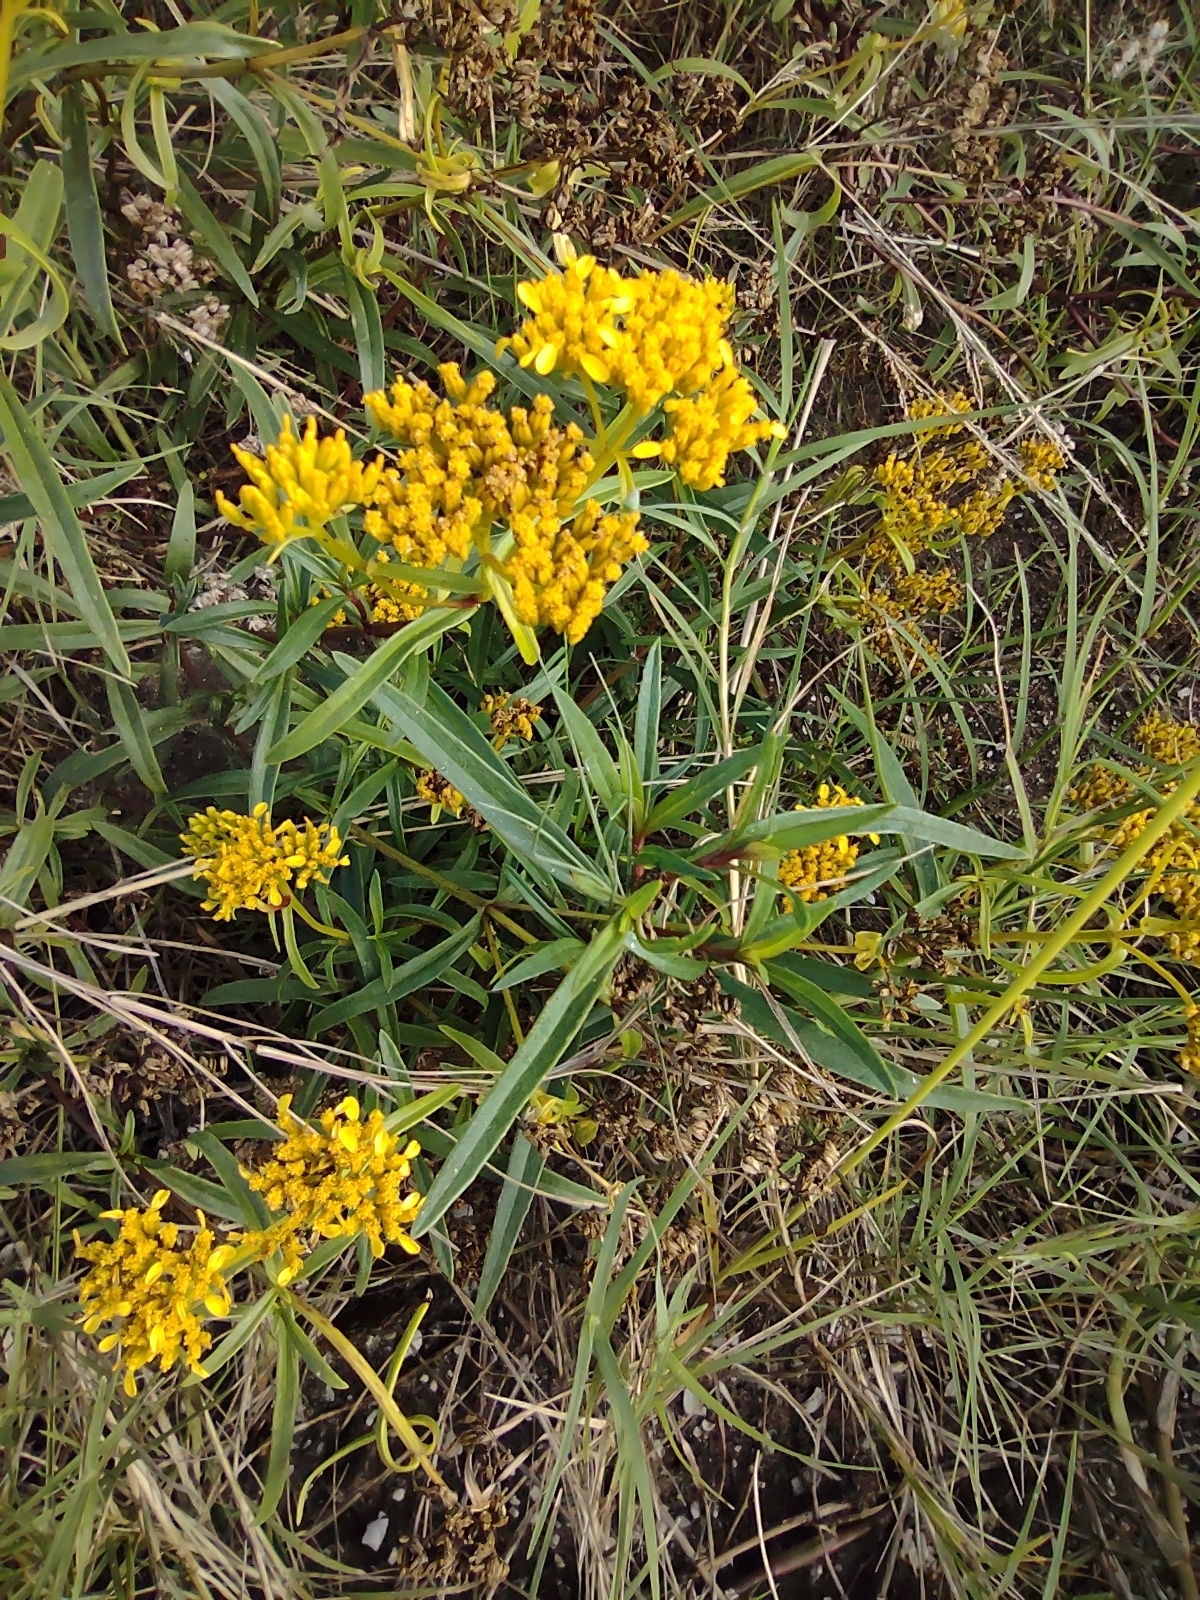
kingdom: Plantae
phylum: Tracheophyta
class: Magnoliopsida
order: Asterales
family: Asteraceae
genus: Flaveria
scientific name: Flaveria linearis
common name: Yellowtop
